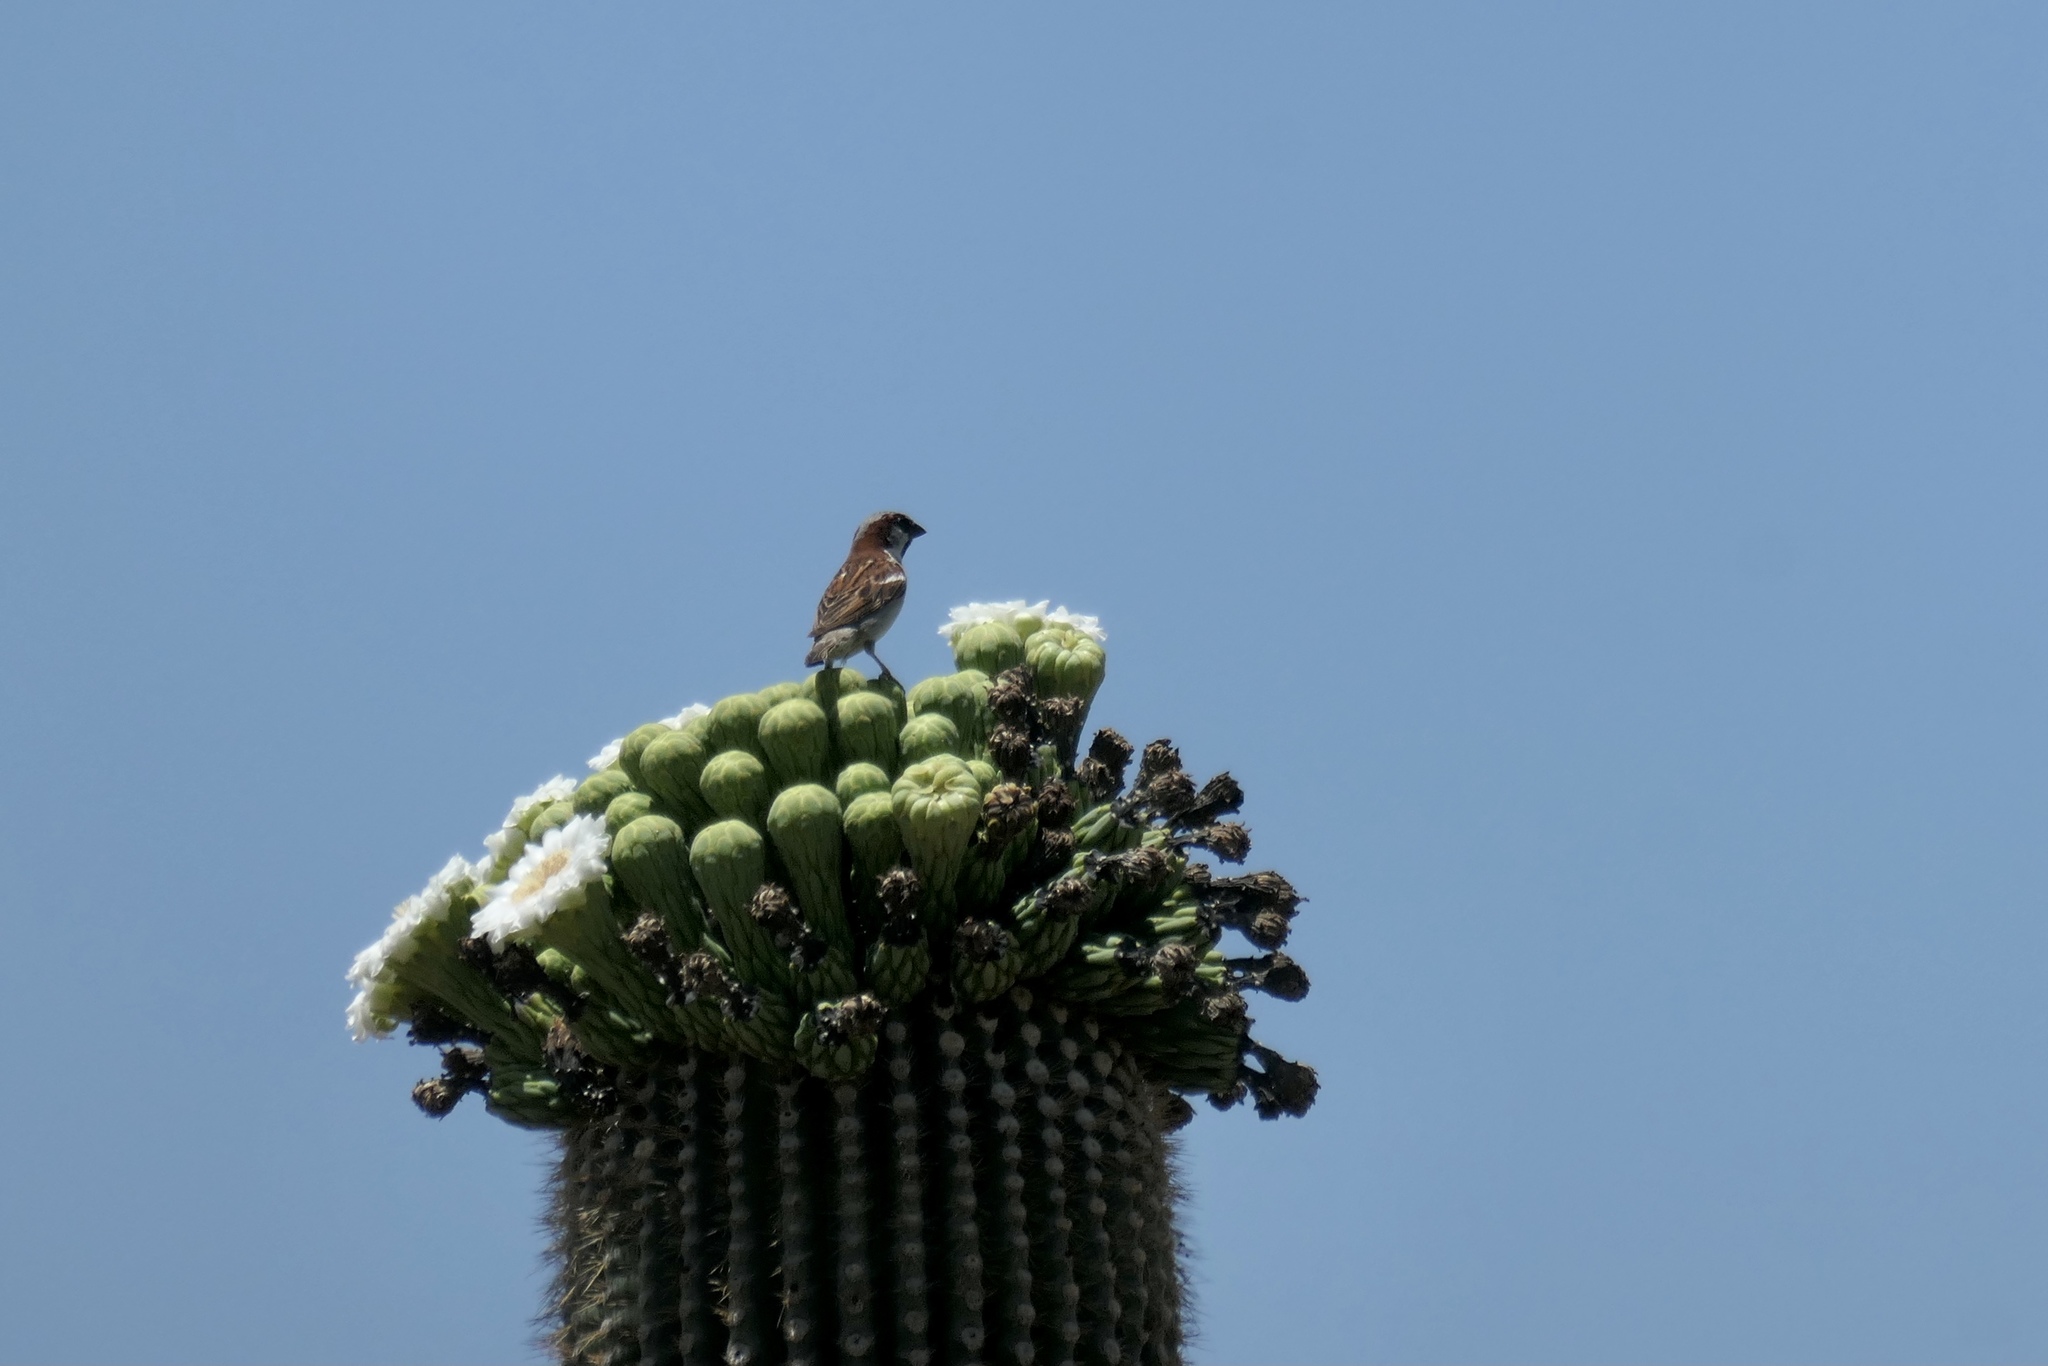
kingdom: Animalia
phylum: Chordata
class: Aves
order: Passeriformes
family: Passeridae
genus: Passer
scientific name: Passer domesticus
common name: House sparrow
